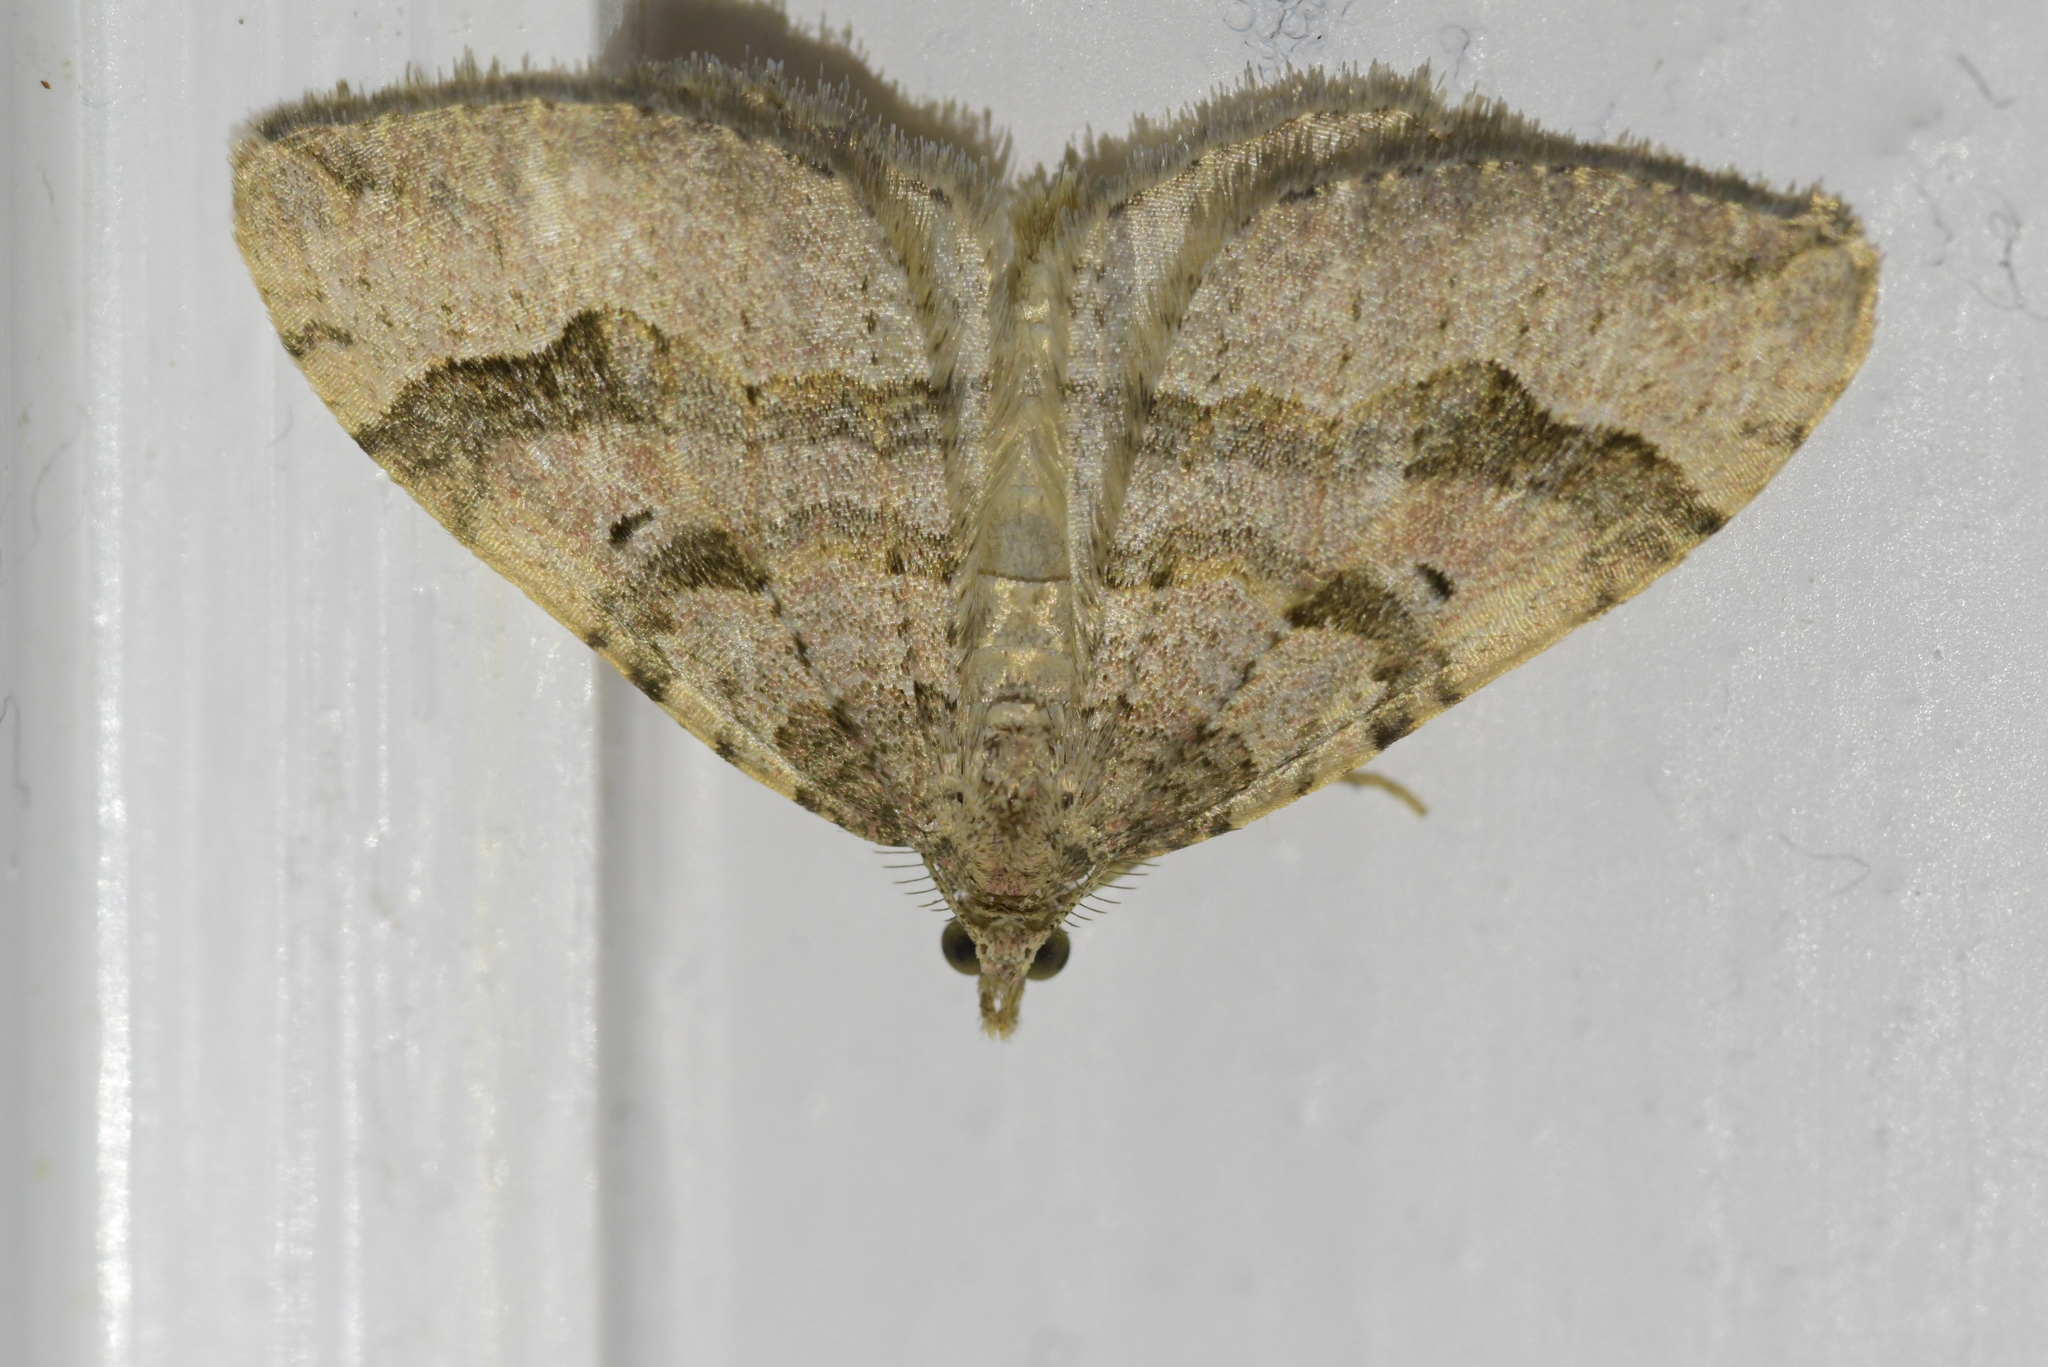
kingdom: Animalia
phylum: Arthropoda
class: Insecta
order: Lepidoptera
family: Geometridae
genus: Epyaxa
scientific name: Epyaxa rosearia
